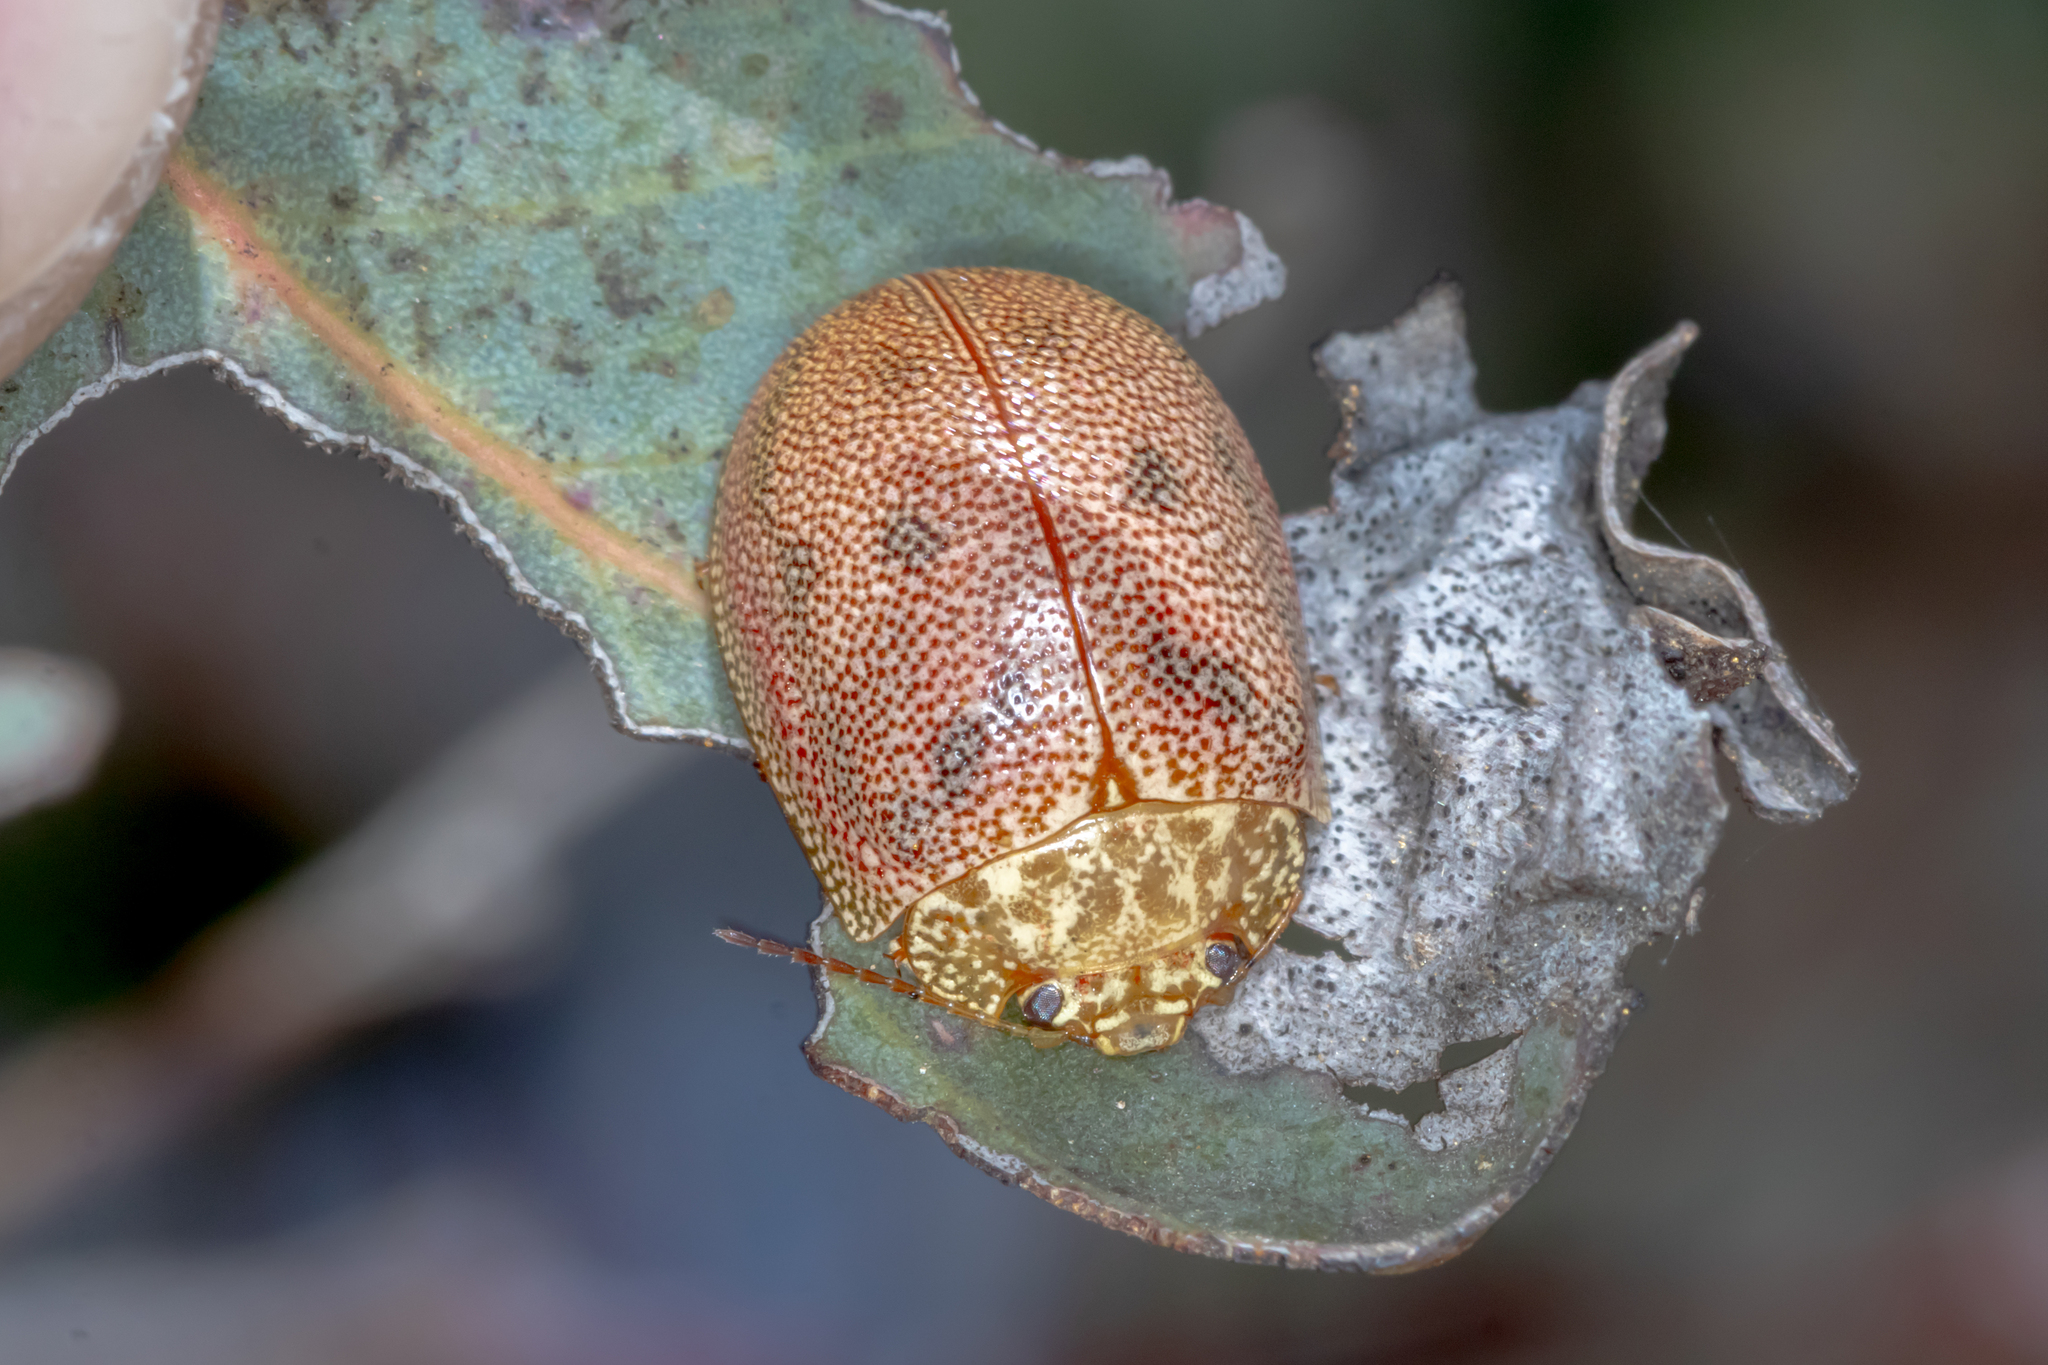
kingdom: Animalia
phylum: Arthropoda
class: Insecta
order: Coleoptera
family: Chrysomelidae
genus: Paropsis
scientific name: Paropsis
